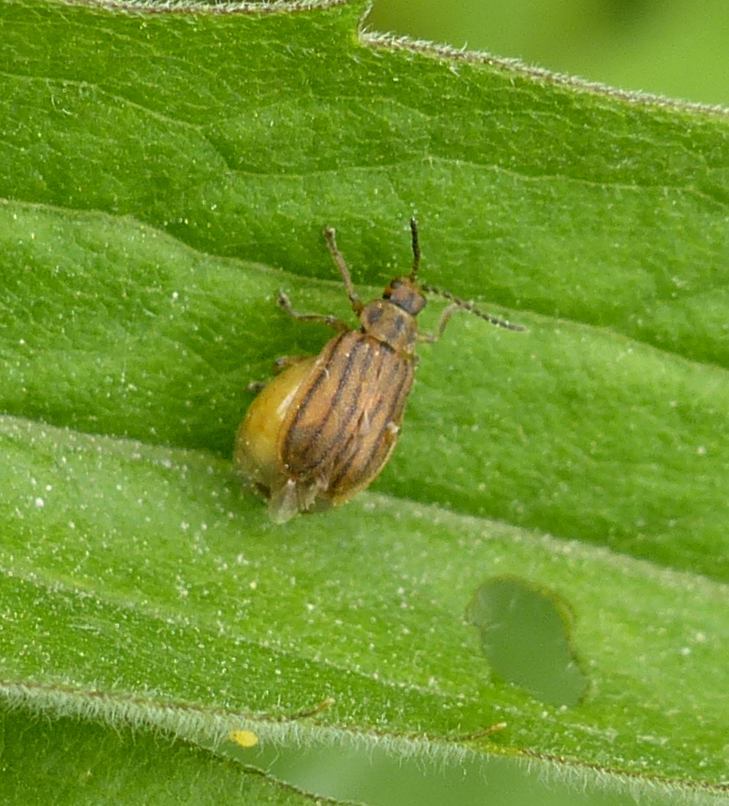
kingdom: Animalia
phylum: Arthropoda
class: Insecta
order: Coleoptera
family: Chrysomelidae
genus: Ophraella
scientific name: Ophraella conferta
